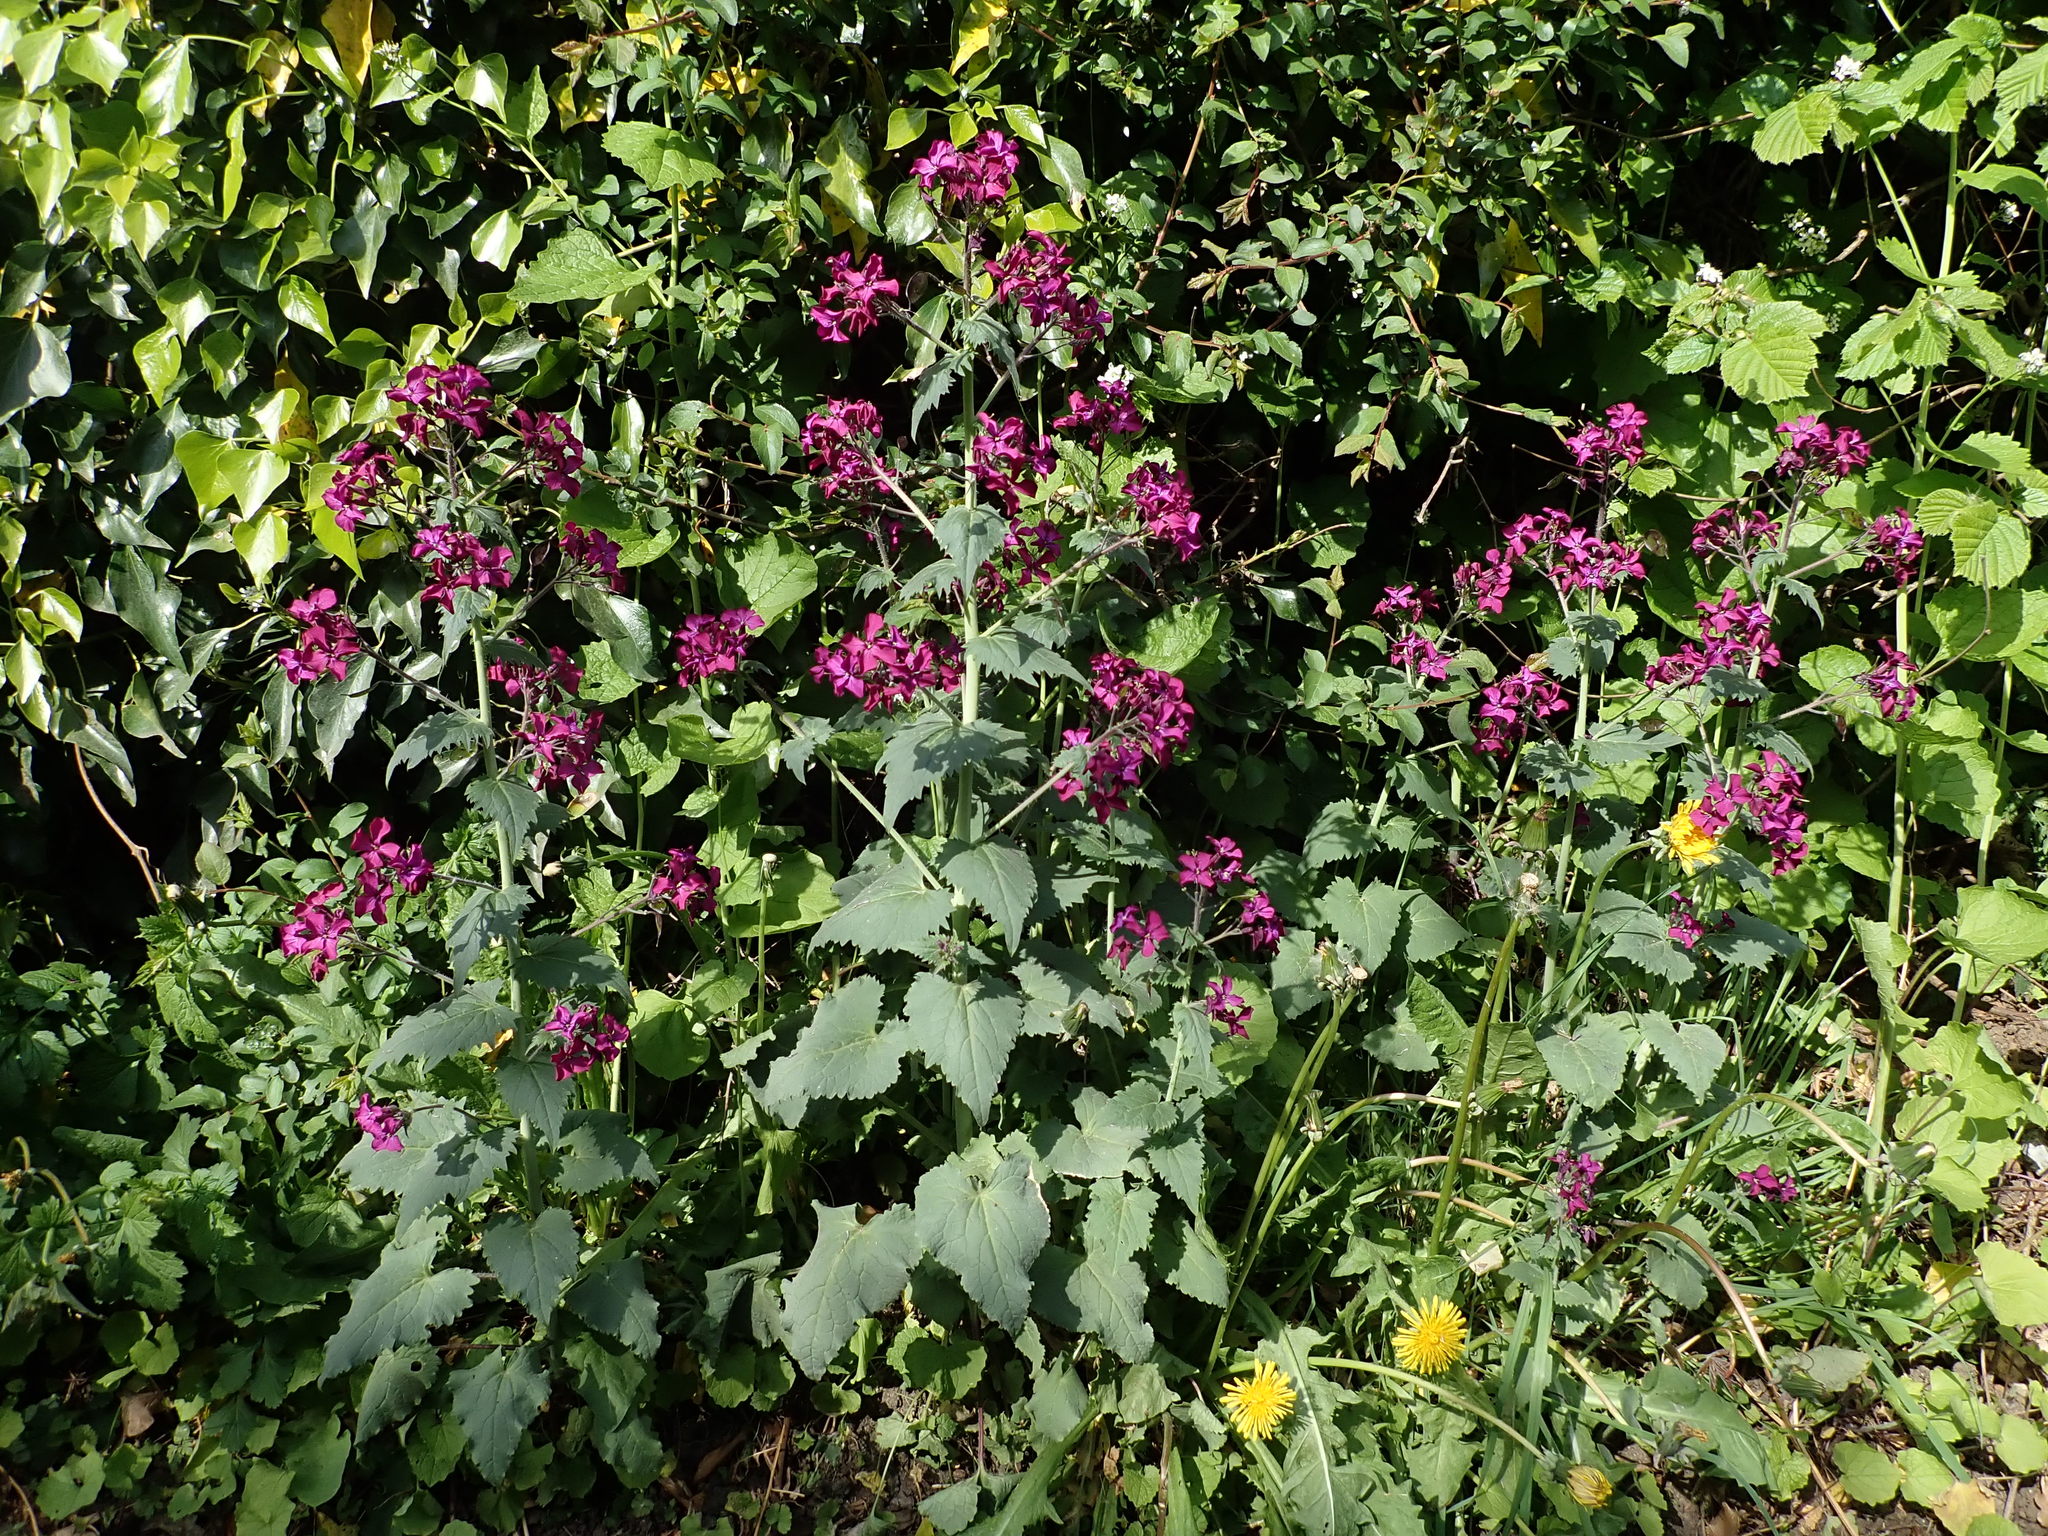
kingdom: Plantae
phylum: Tracheophyta
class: Magnoliopsida
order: Brassicales
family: Brassicaceae
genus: Lunaria
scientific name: Lunaria annua
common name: Honesty
